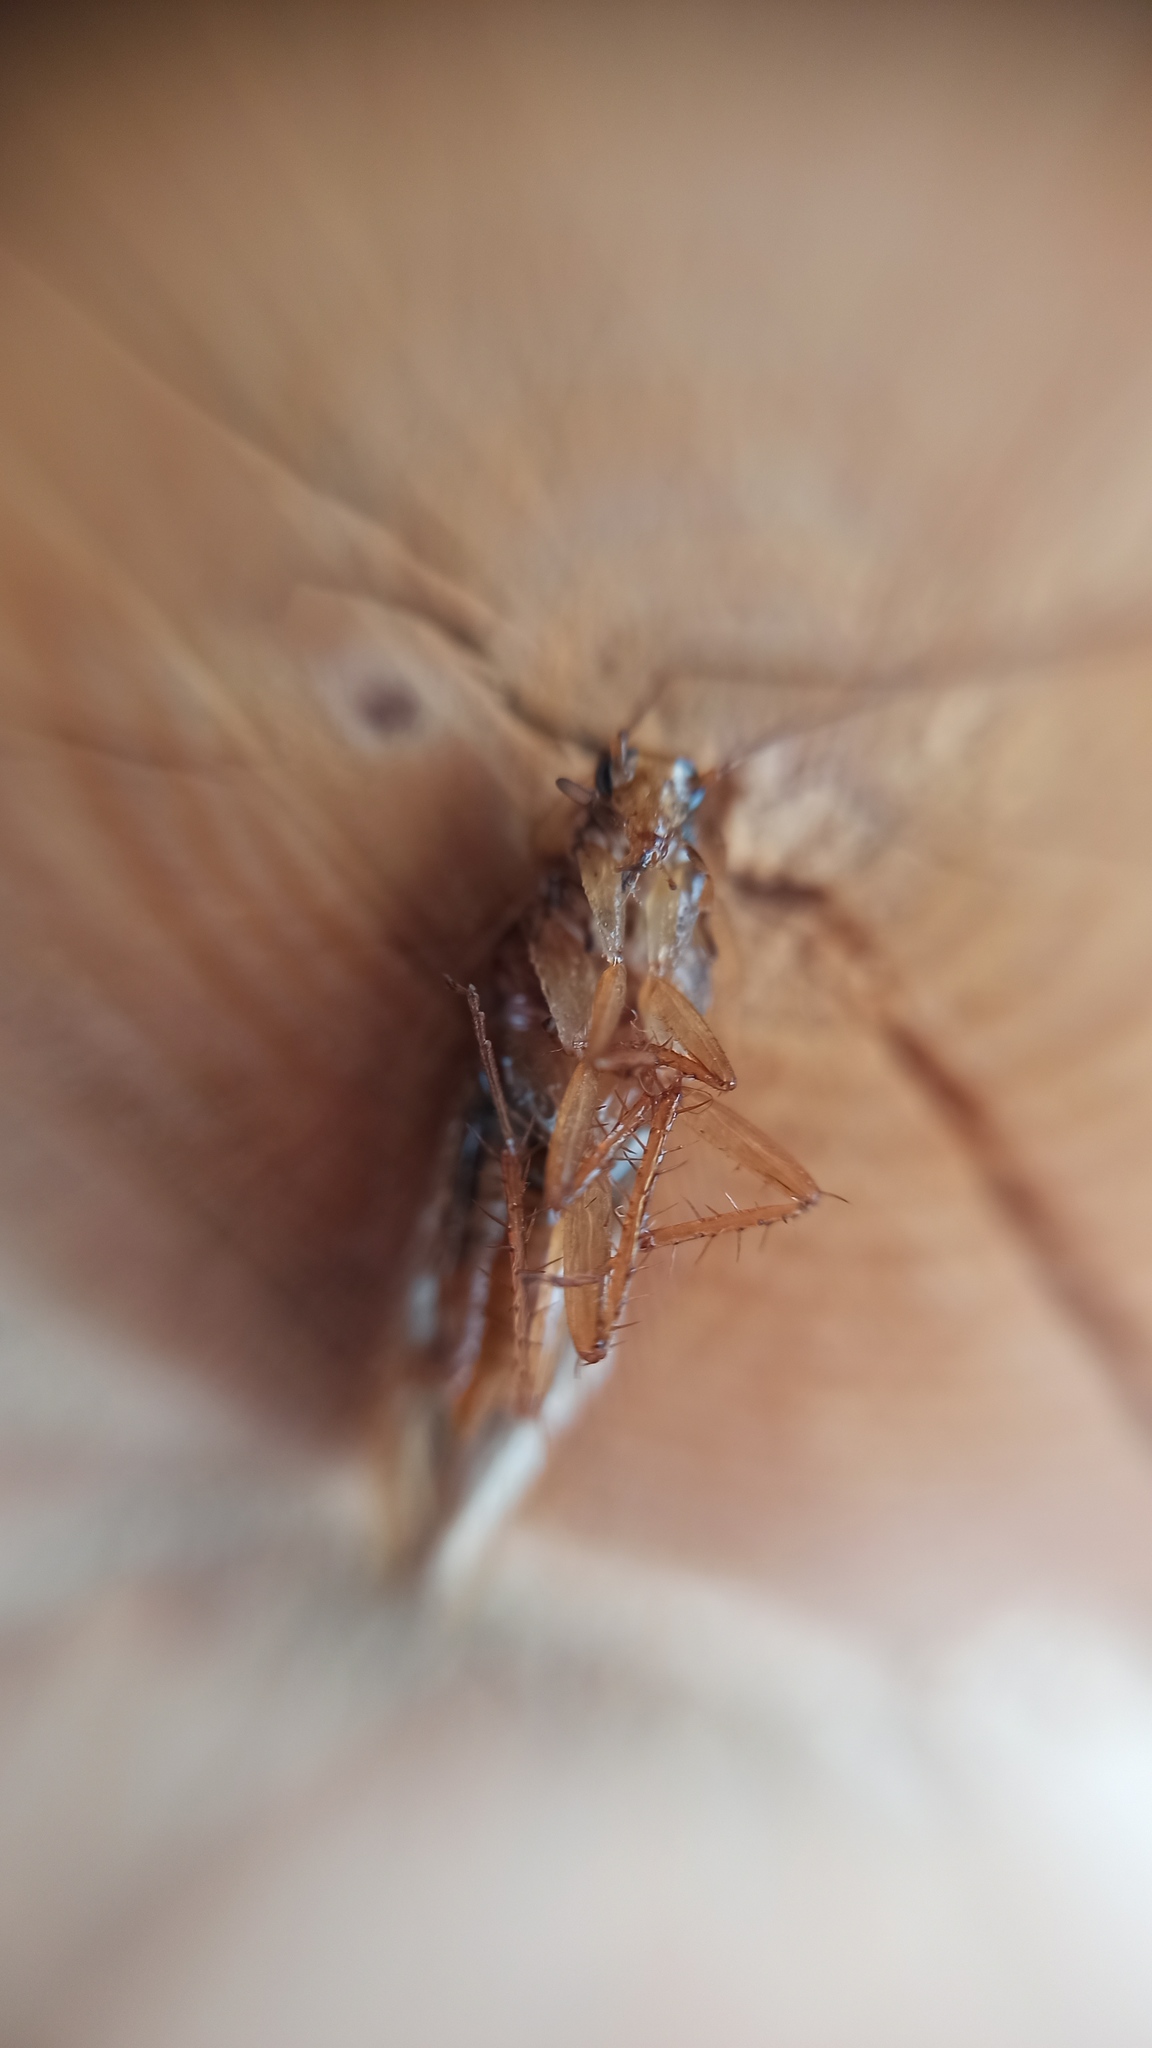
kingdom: Animalia
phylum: Arthropoda
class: Insecta
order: Blattodea
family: Ectobiidae
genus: Ectobius
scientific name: Ectobius vittiventris
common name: Garden cockroach
